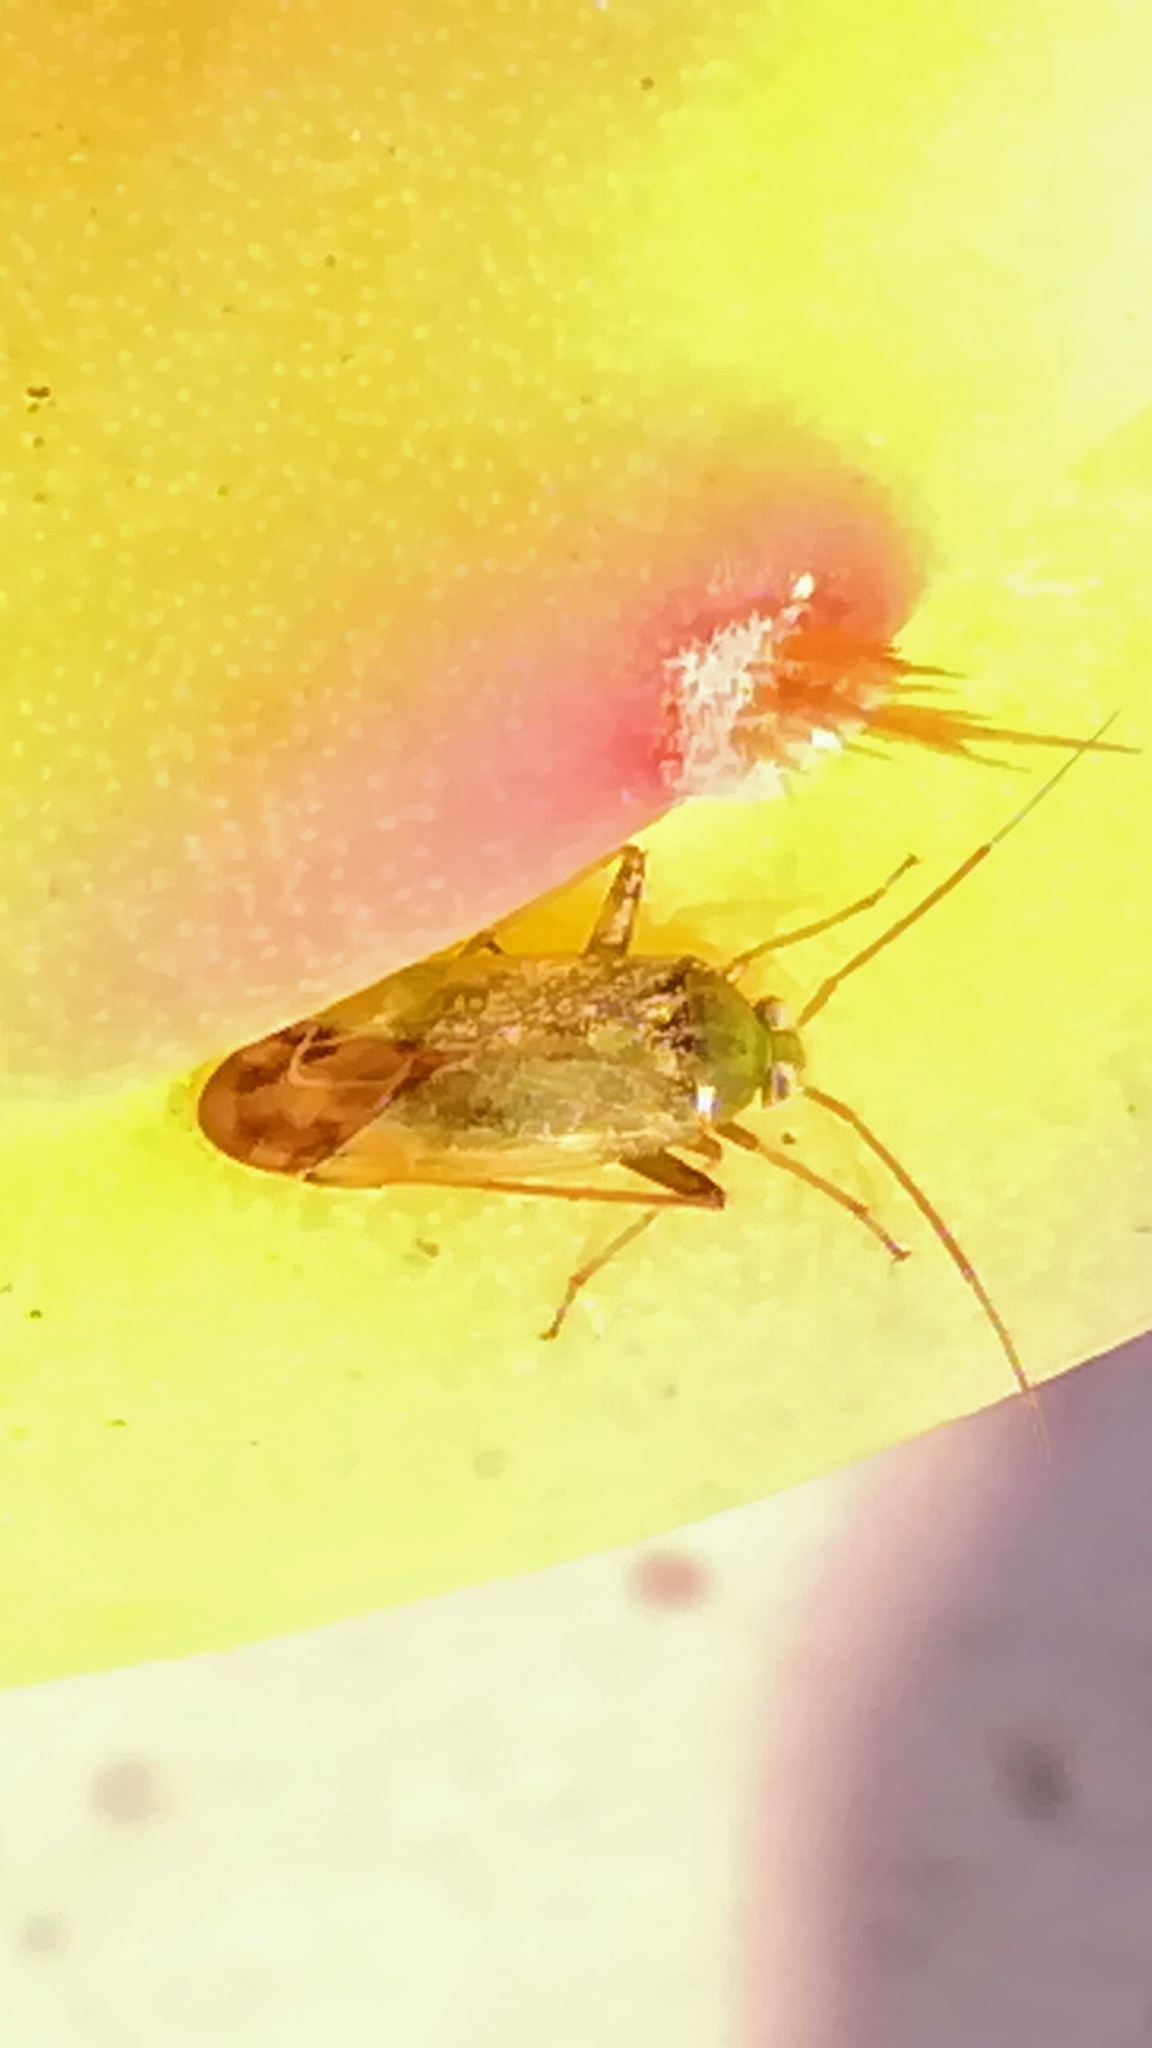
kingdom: Animalia
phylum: Arthropoda
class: Insecta
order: Hemiptera
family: Miridae
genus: Lygus
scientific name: Lygus rugulipennis
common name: European tarnished plant bug
